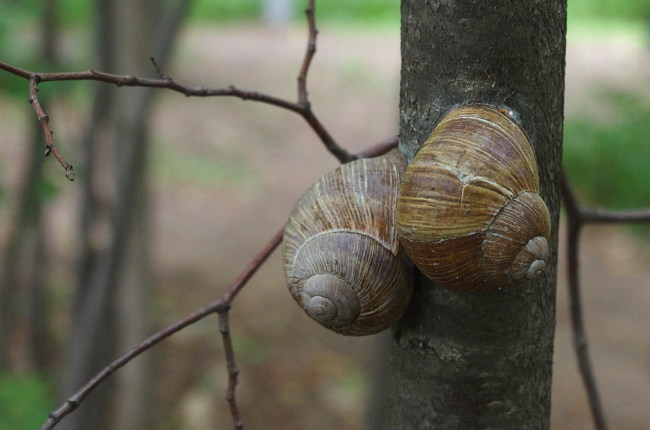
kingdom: Animalia
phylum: Mollusca
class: Gastropoda
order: Stylommatophora
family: Helicidae
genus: Helix
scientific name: Helix pomatia
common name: Roman snail
